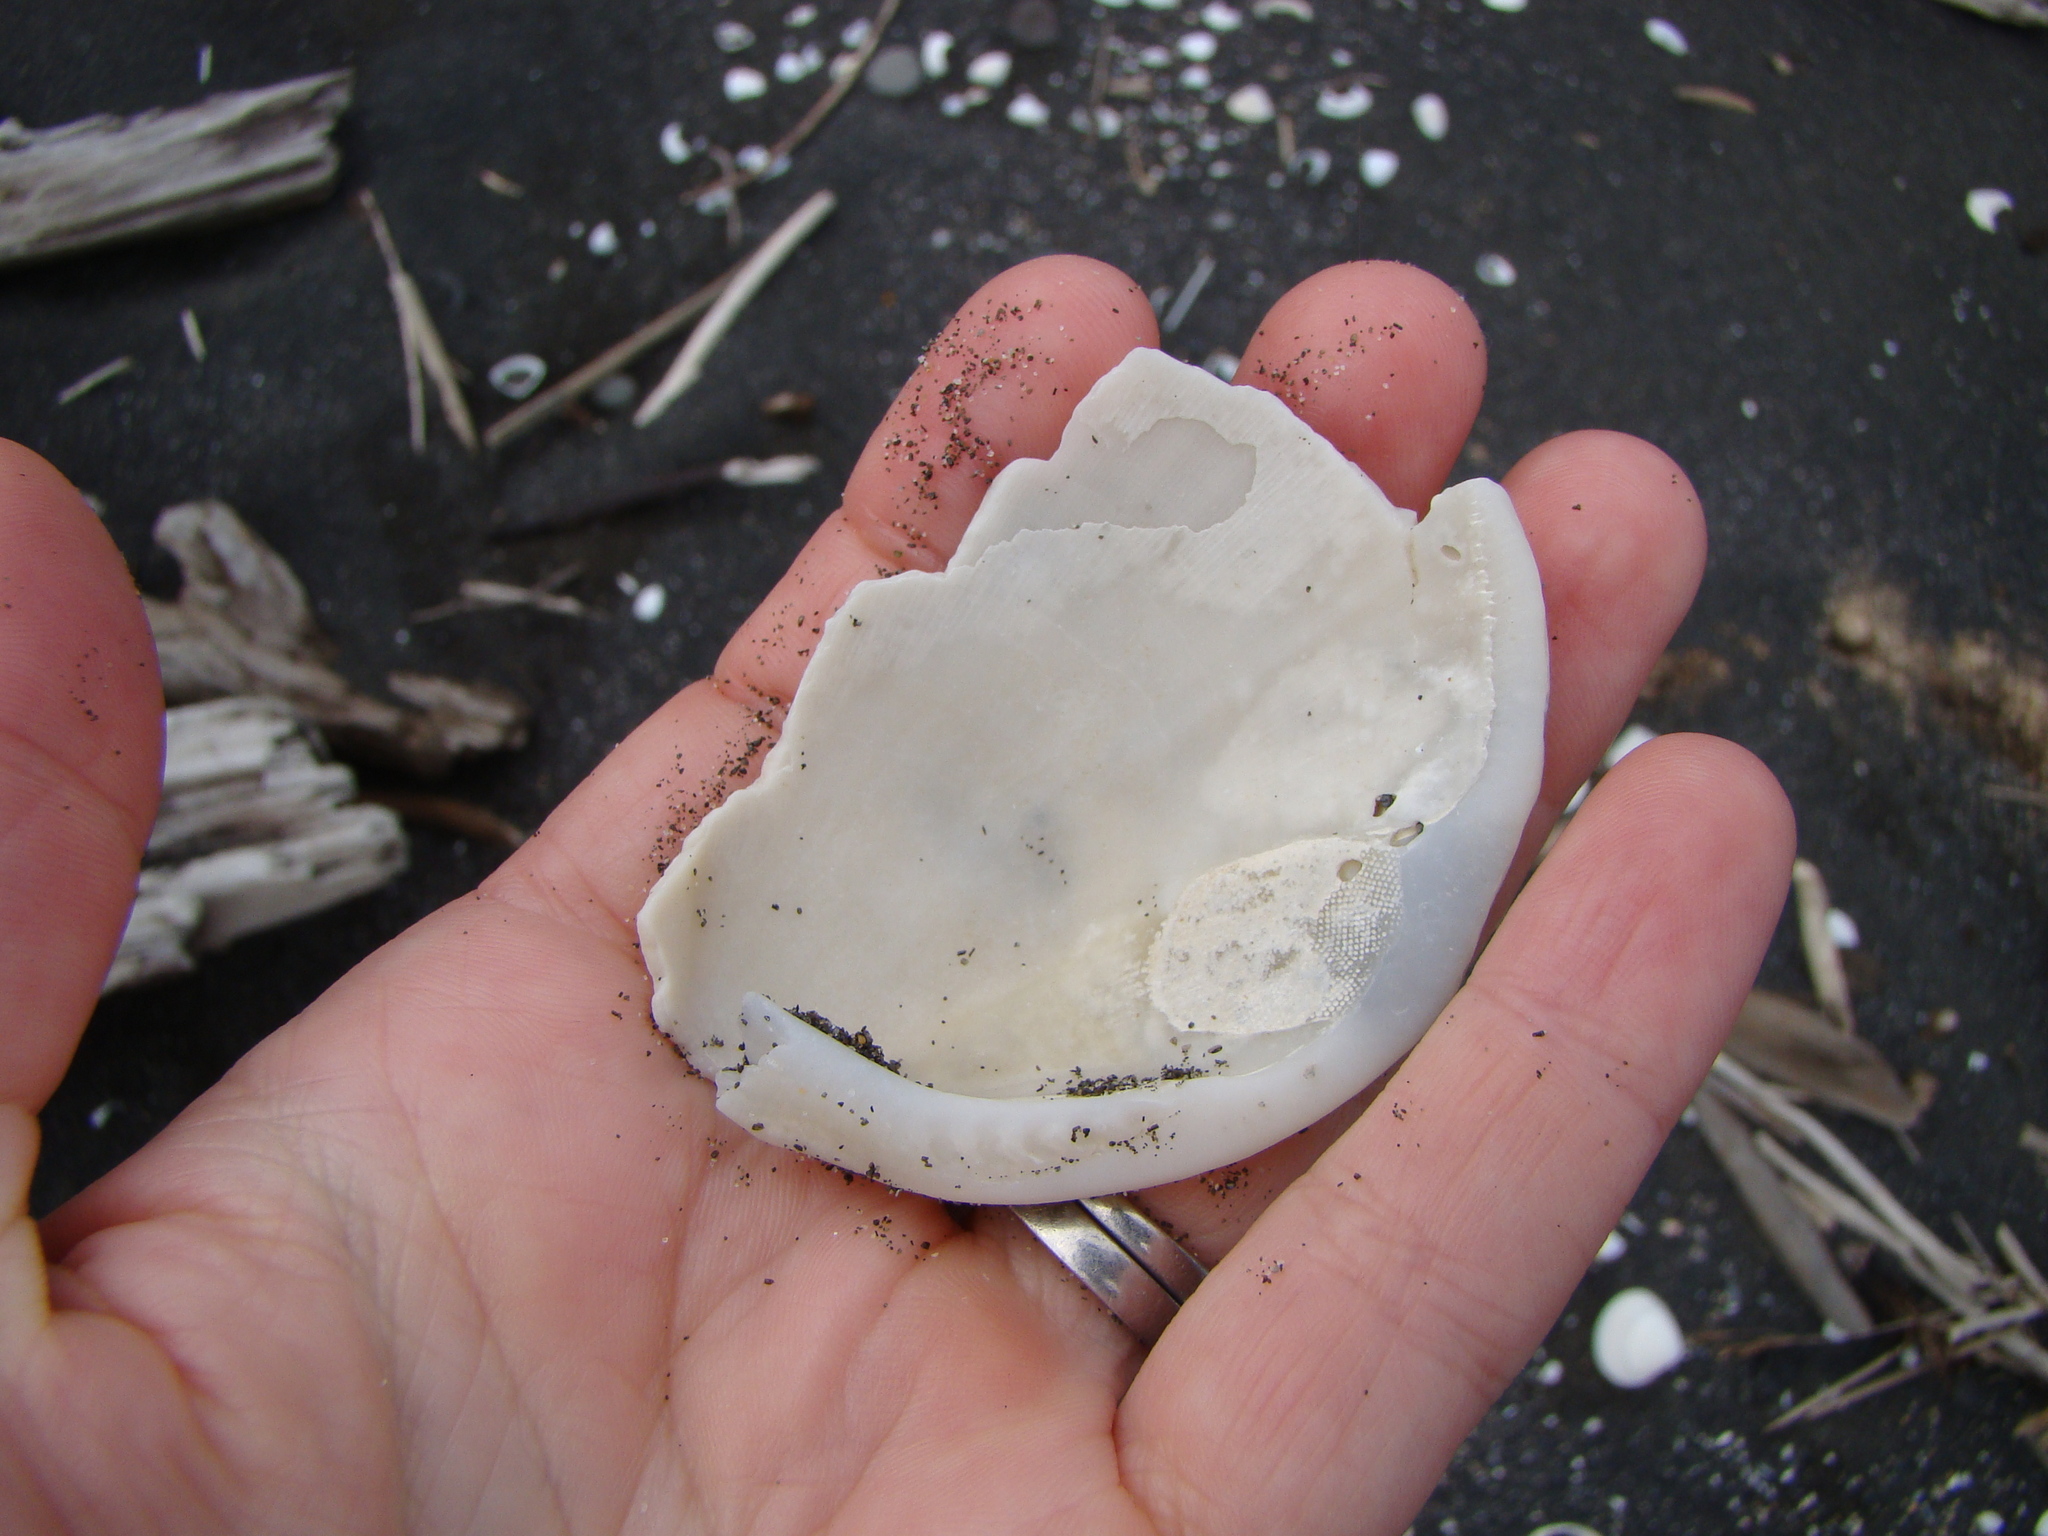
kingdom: Animalia
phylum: Mollusca
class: Bivalvia
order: Arcida
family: Glycymerididae
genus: Tucetona
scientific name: Tucetona laticostata
